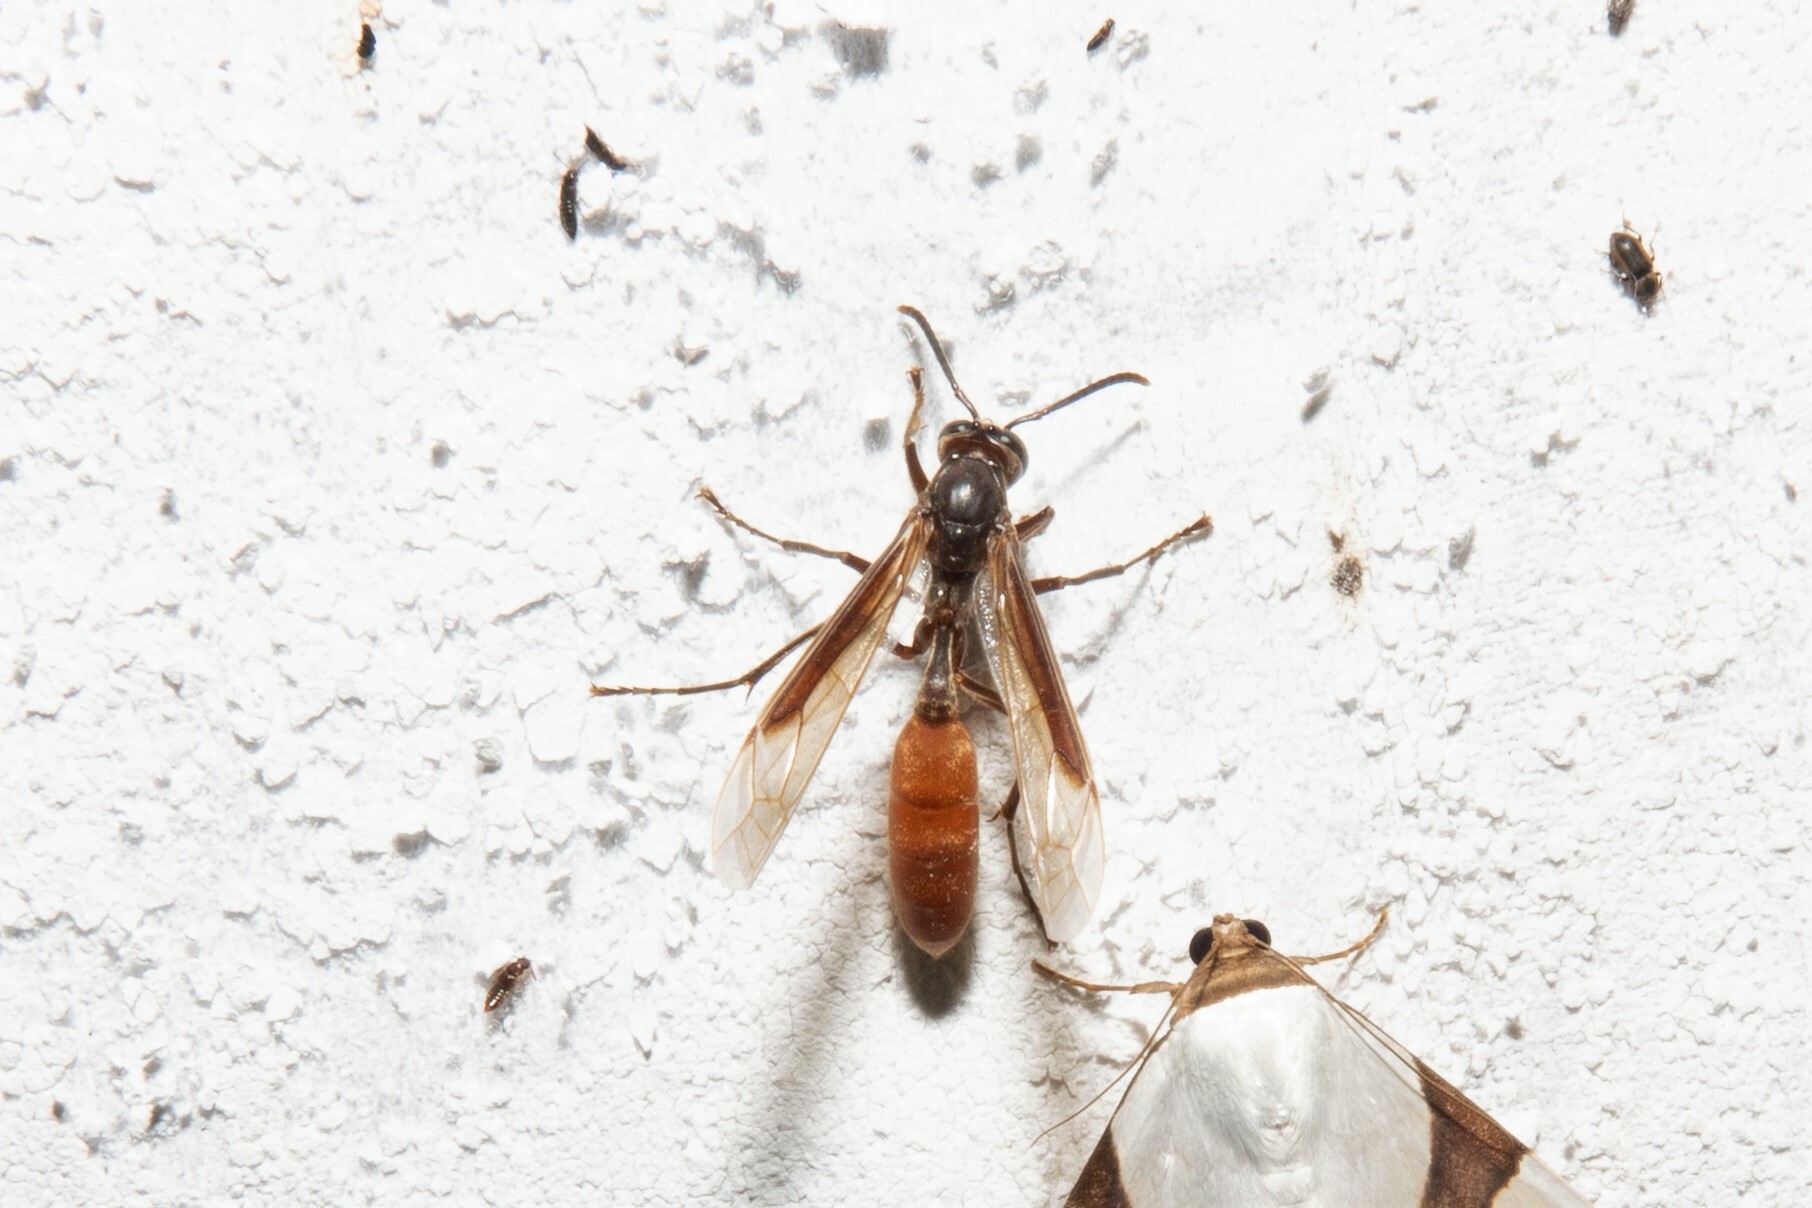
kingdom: Animalia
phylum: Arthropoda
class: Insecta
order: Hymenoptera
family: Vespidae
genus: Apoica
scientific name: Apoica thoracica
